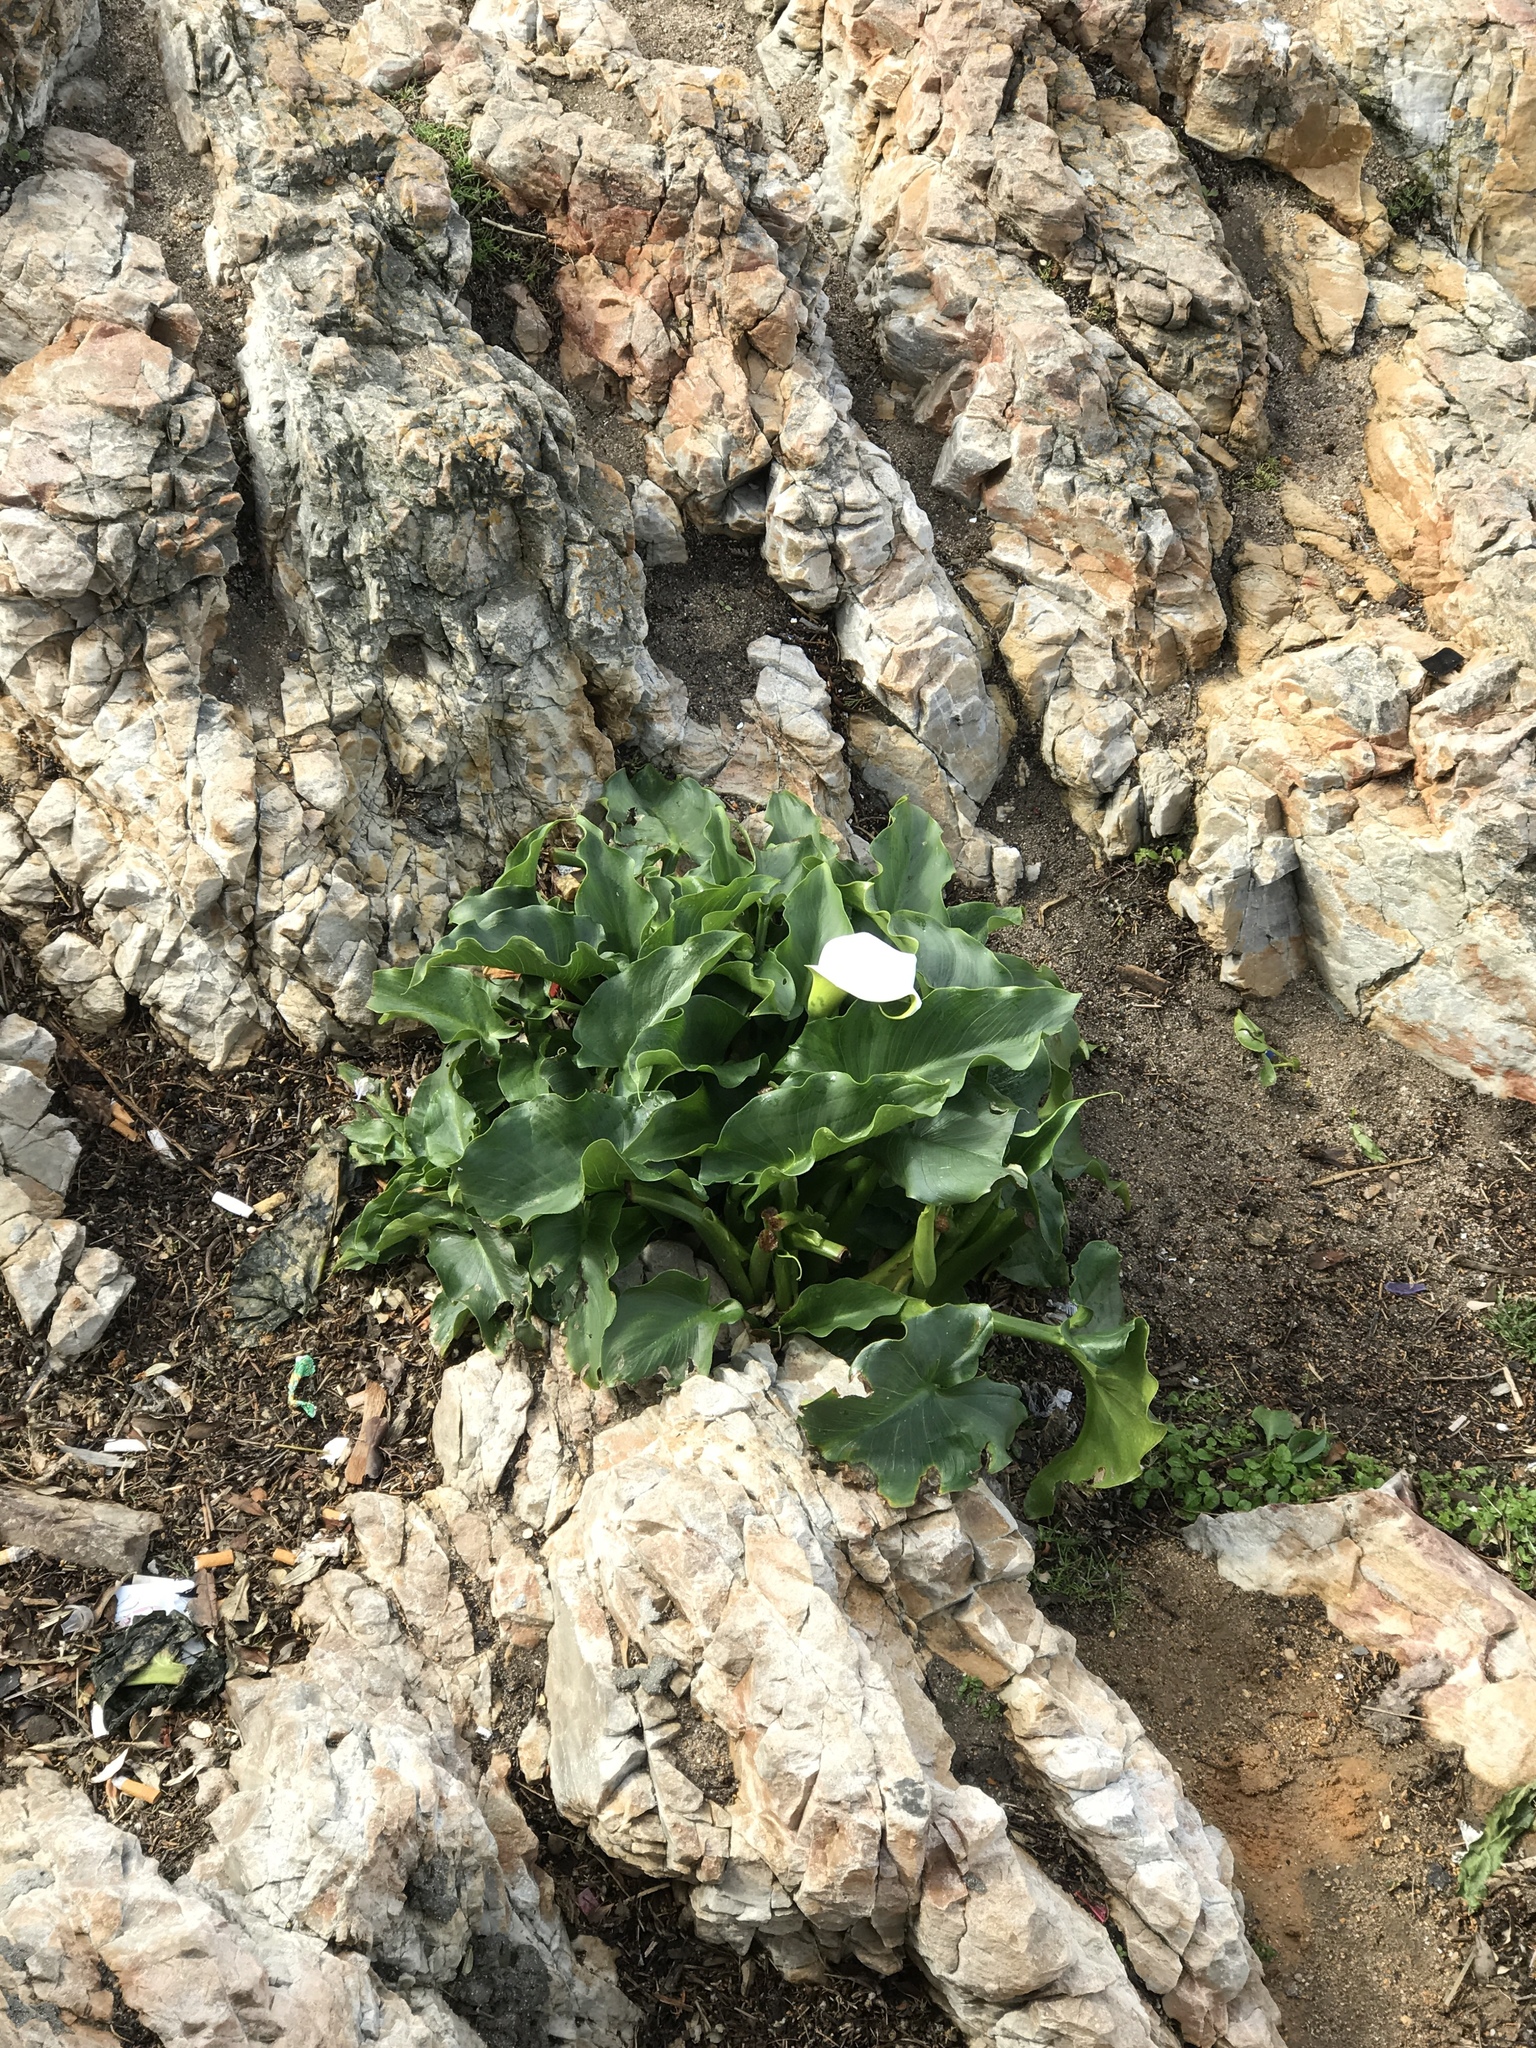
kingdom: Plantae
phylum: Tracheophyta
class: Liliopsida
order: Alismatales
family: Araceae
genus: Zantedeschia
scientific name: Zantedeschia aethiopica
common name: Altar-lily
